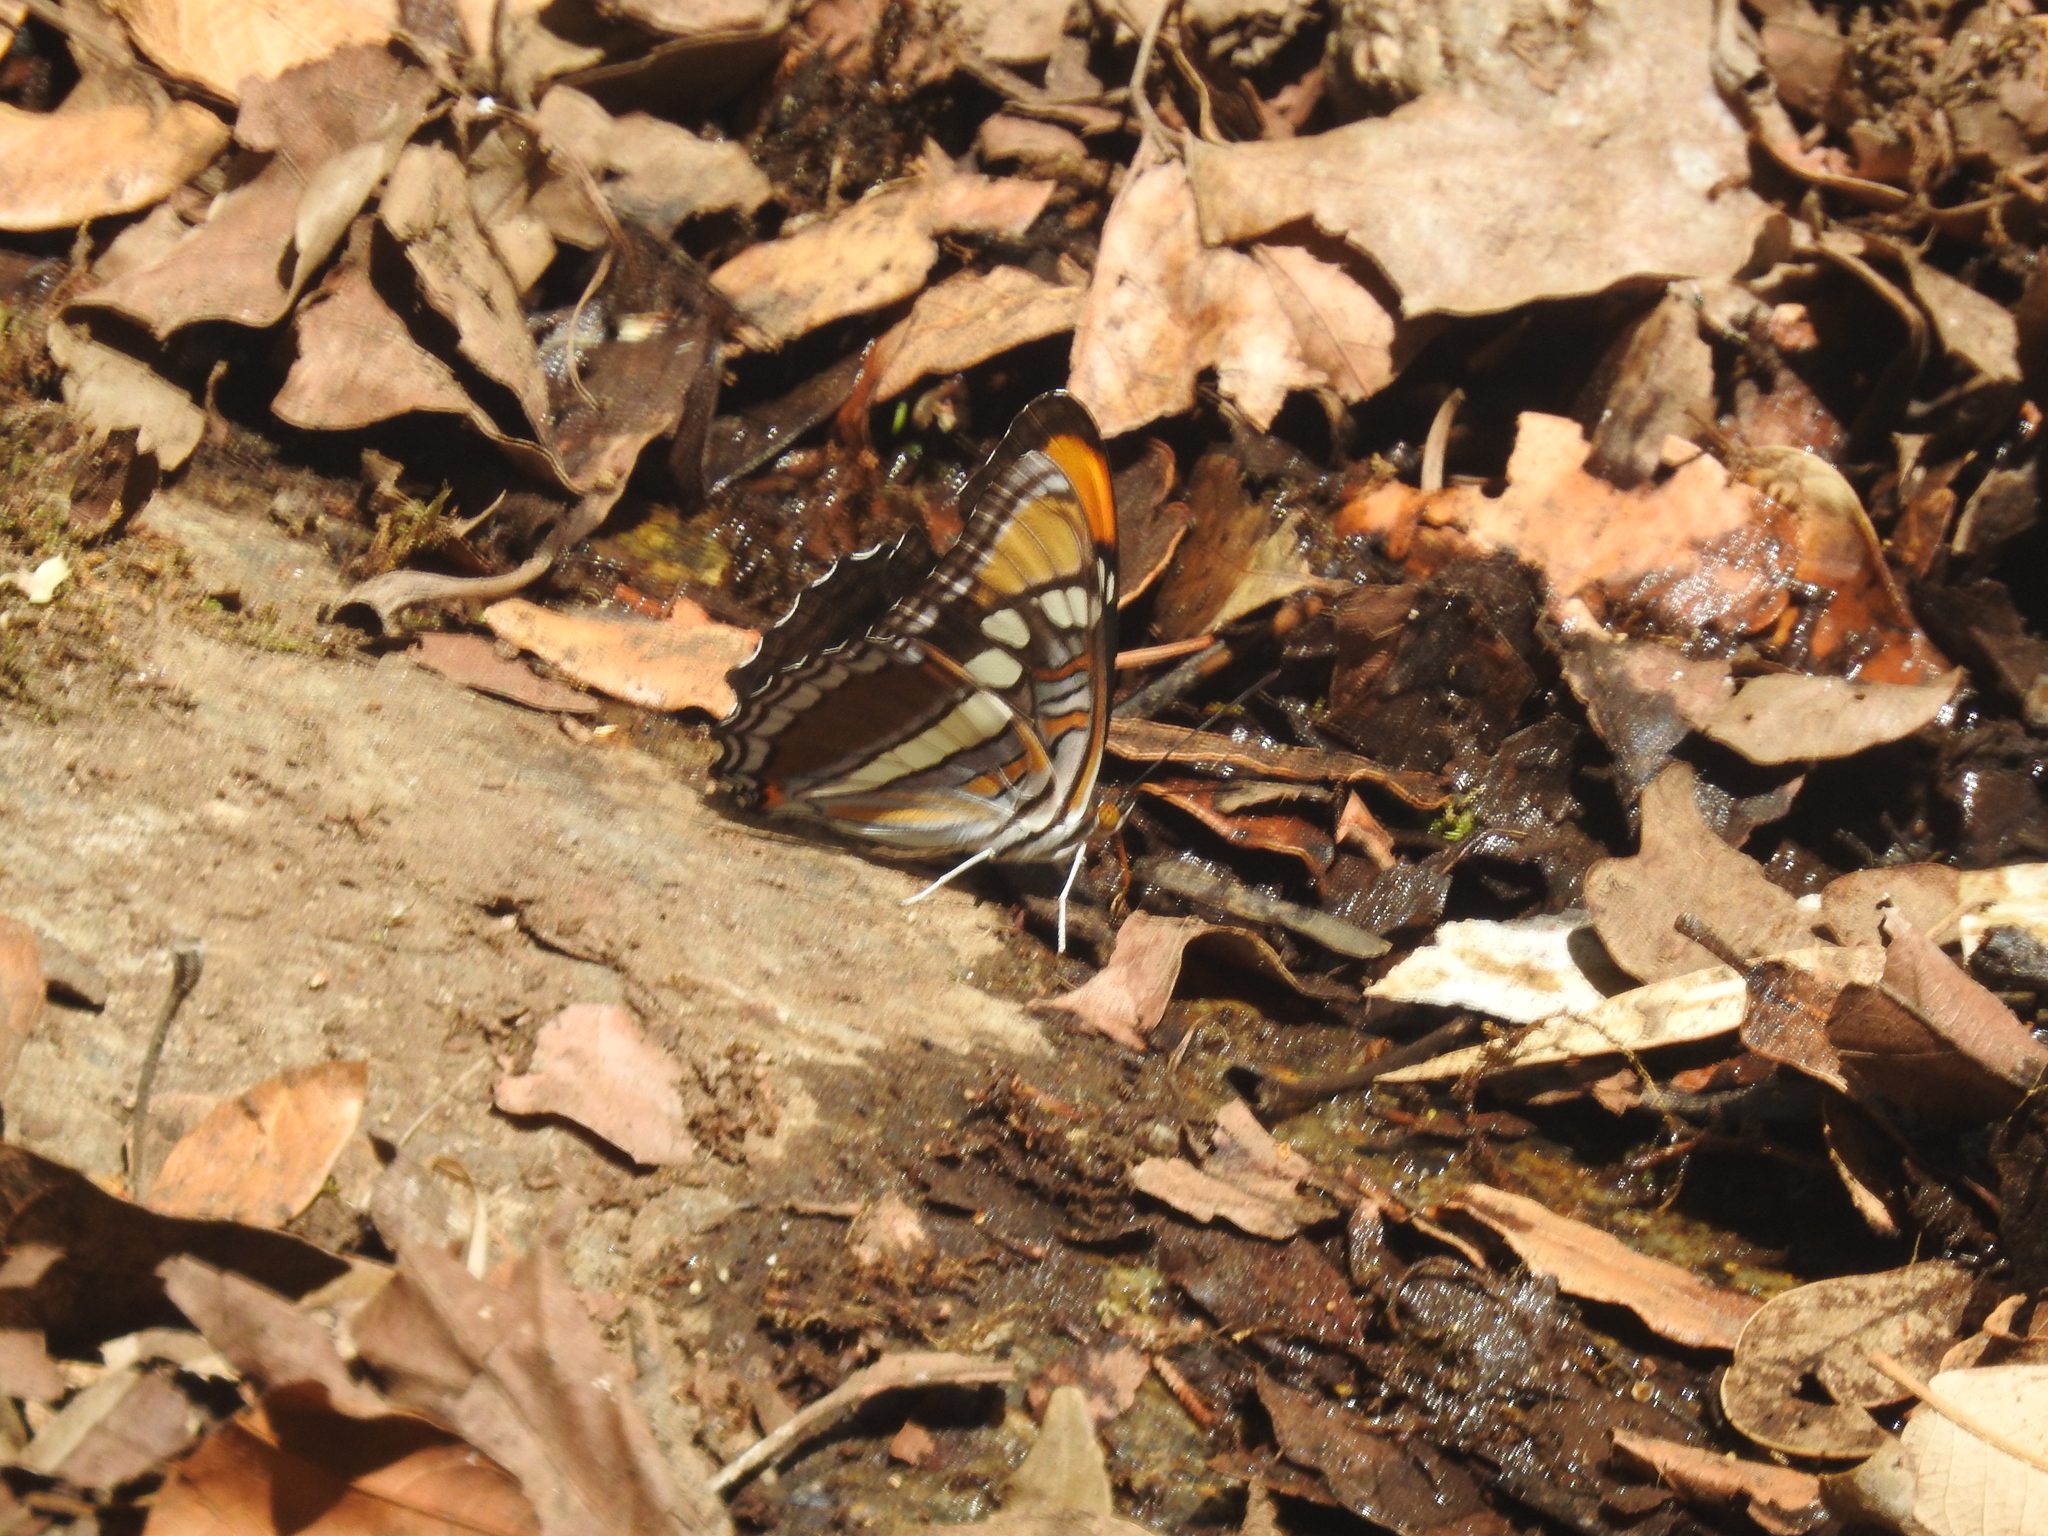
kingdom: Animalia
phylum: Arthropoda
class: Insecta
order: Lepidoptera
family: Nymphalidae
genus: Limenitis
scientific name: Limenitis bredowii
